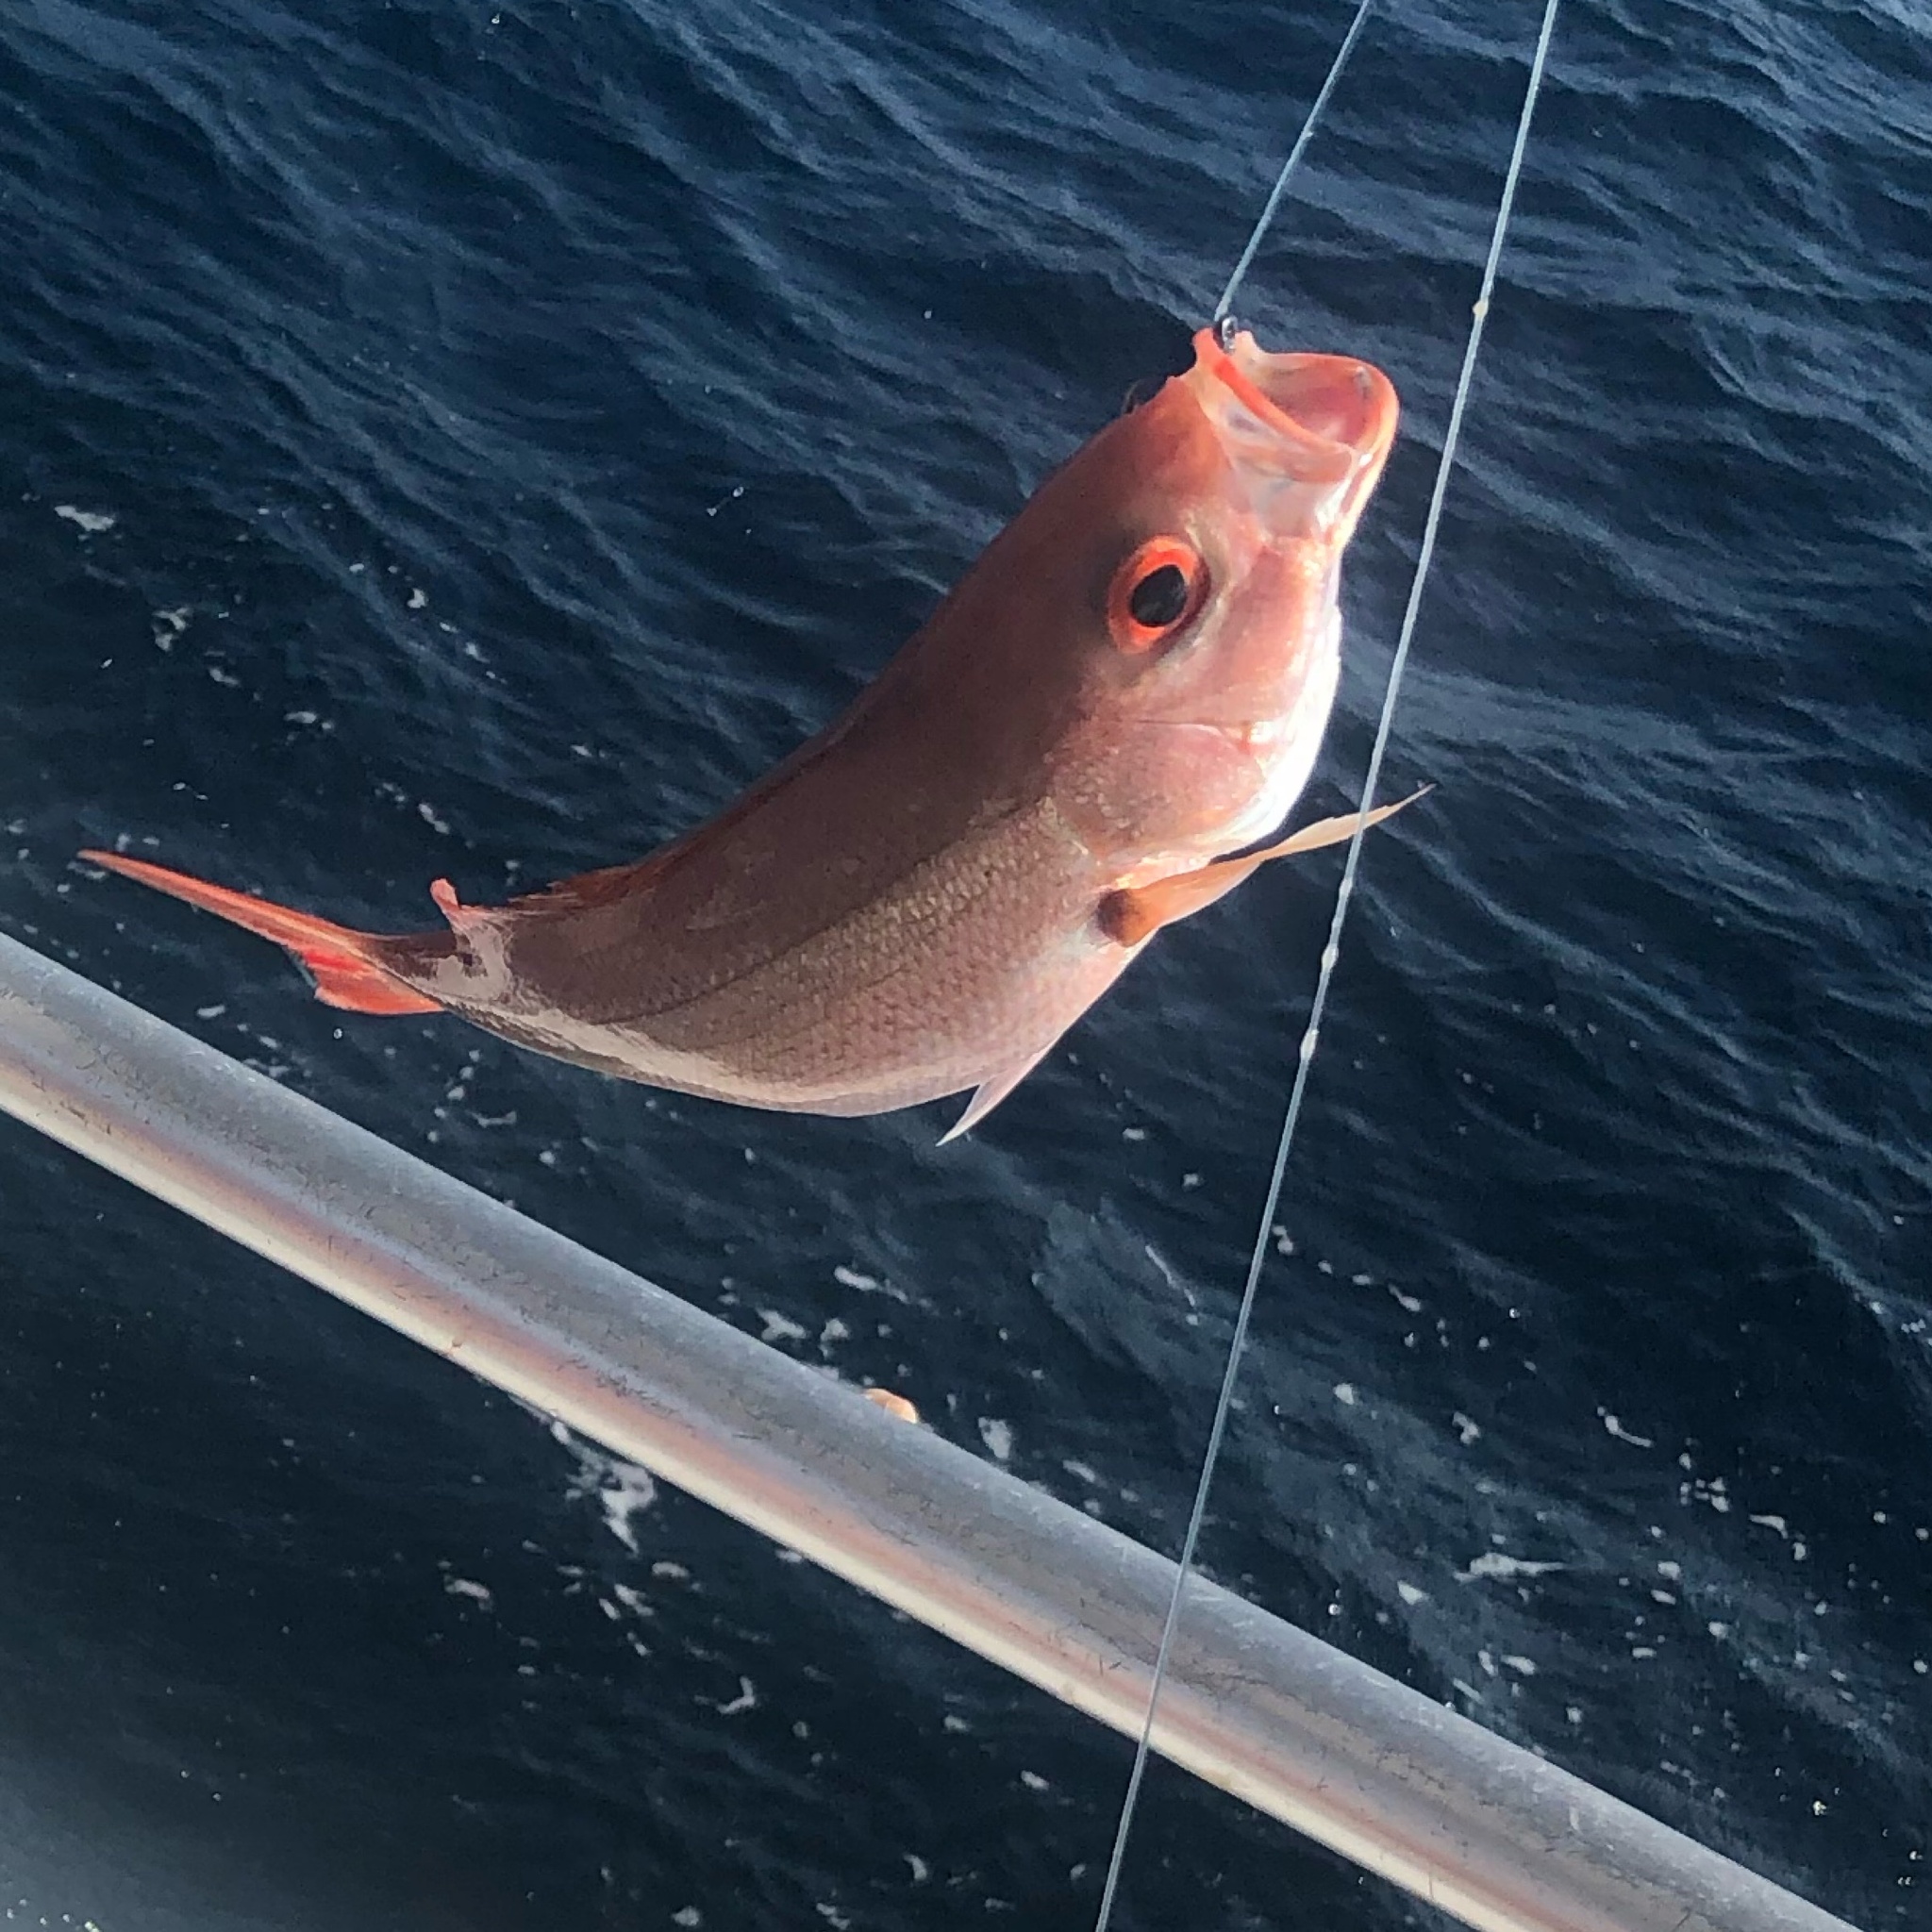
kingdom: Animalia
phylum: Chordata
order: Perciformes
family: Lutjanidae
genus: Rhomboplites
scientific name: Rhomboplites aurorubens
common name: Vermillion snapper
